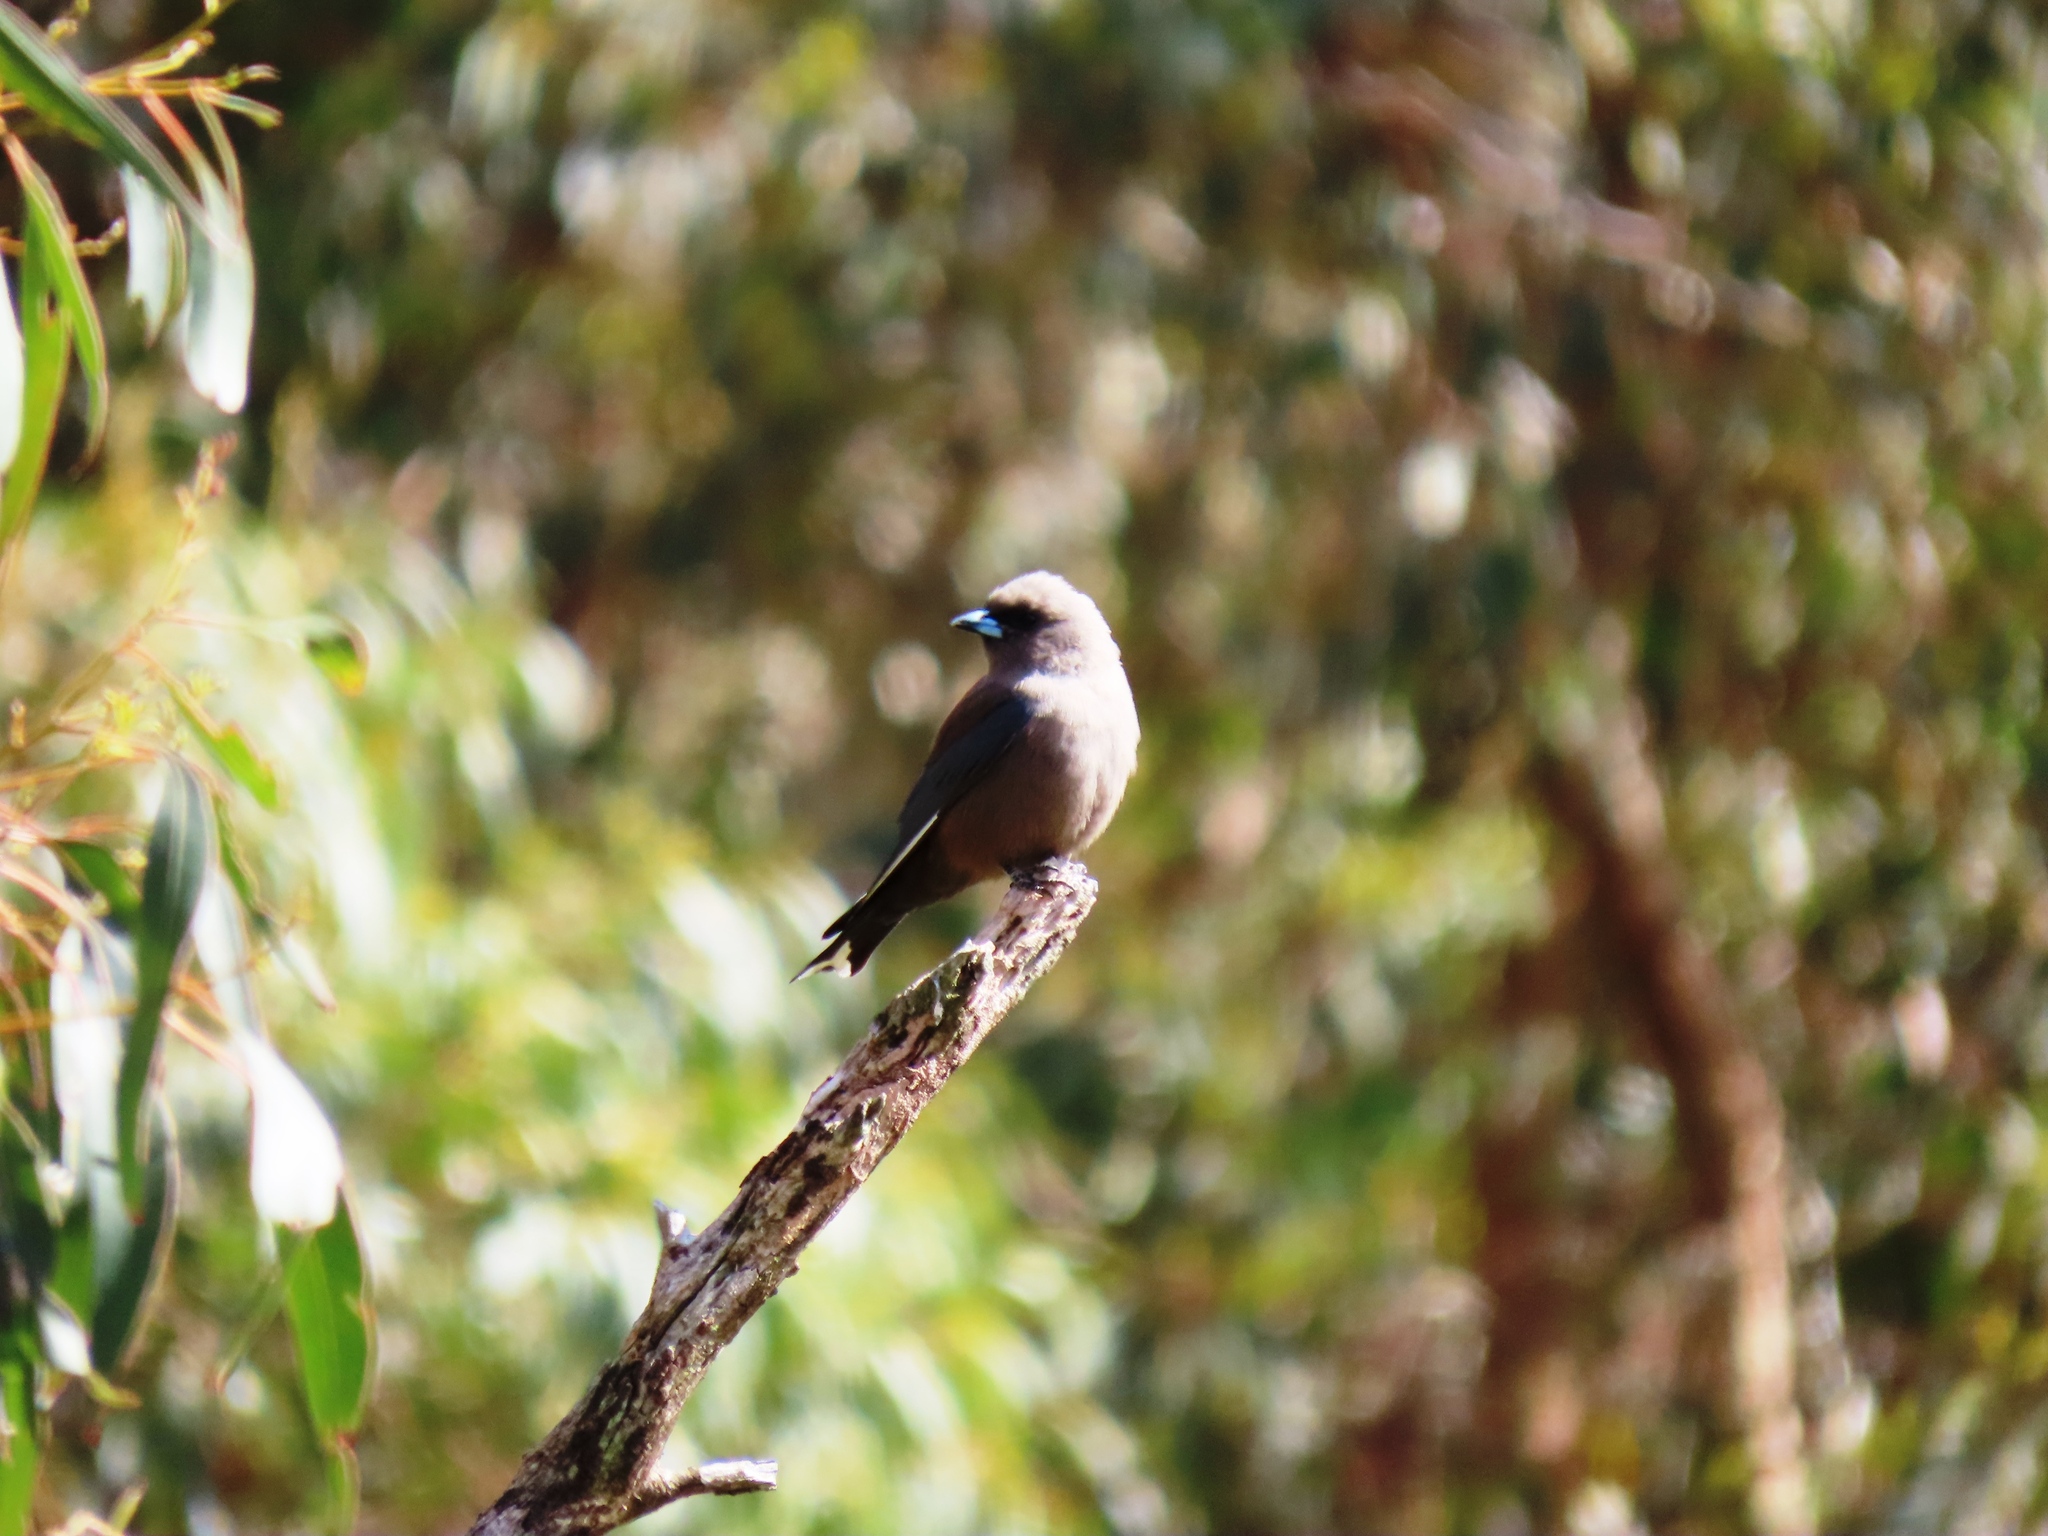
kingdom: Animalia
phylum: Chordata
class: Aves
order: Passeriformes
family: Artamidae
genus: Artamus
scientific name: Artamus cyanopterus
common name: Dusky woodswallow
